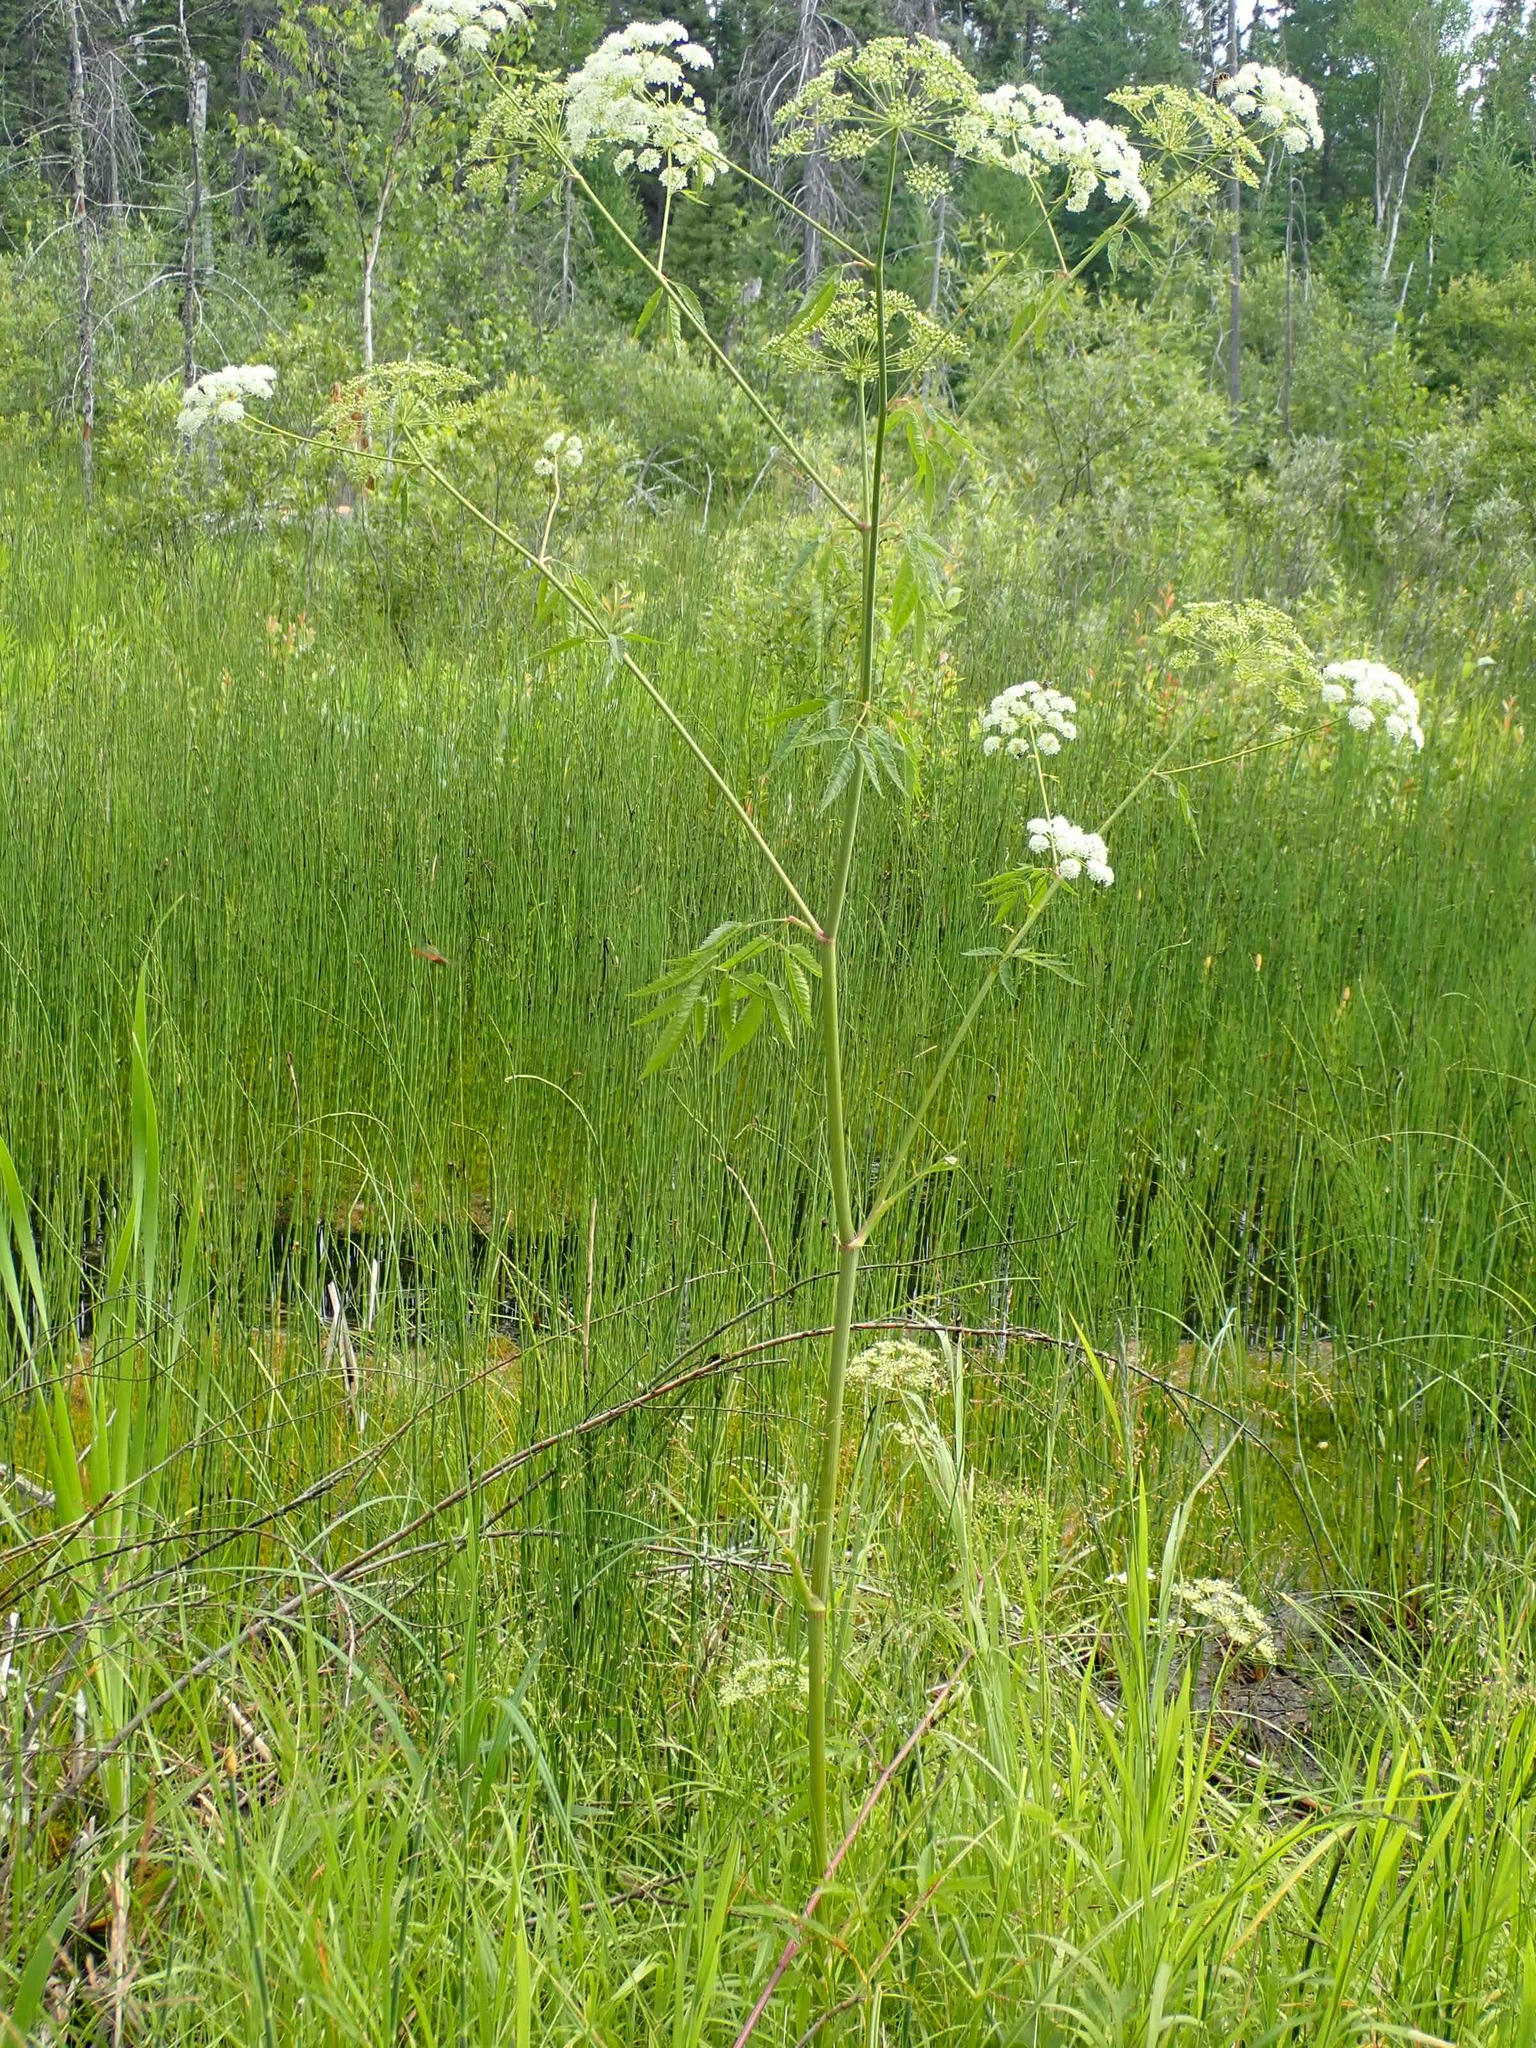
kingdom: Plantae
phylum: Tracheophyta
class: Magnoliopsida
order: Apiales
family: Apiaceae
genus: Cicuta
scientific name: Cicuta maculata
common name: Spotted cowbane
